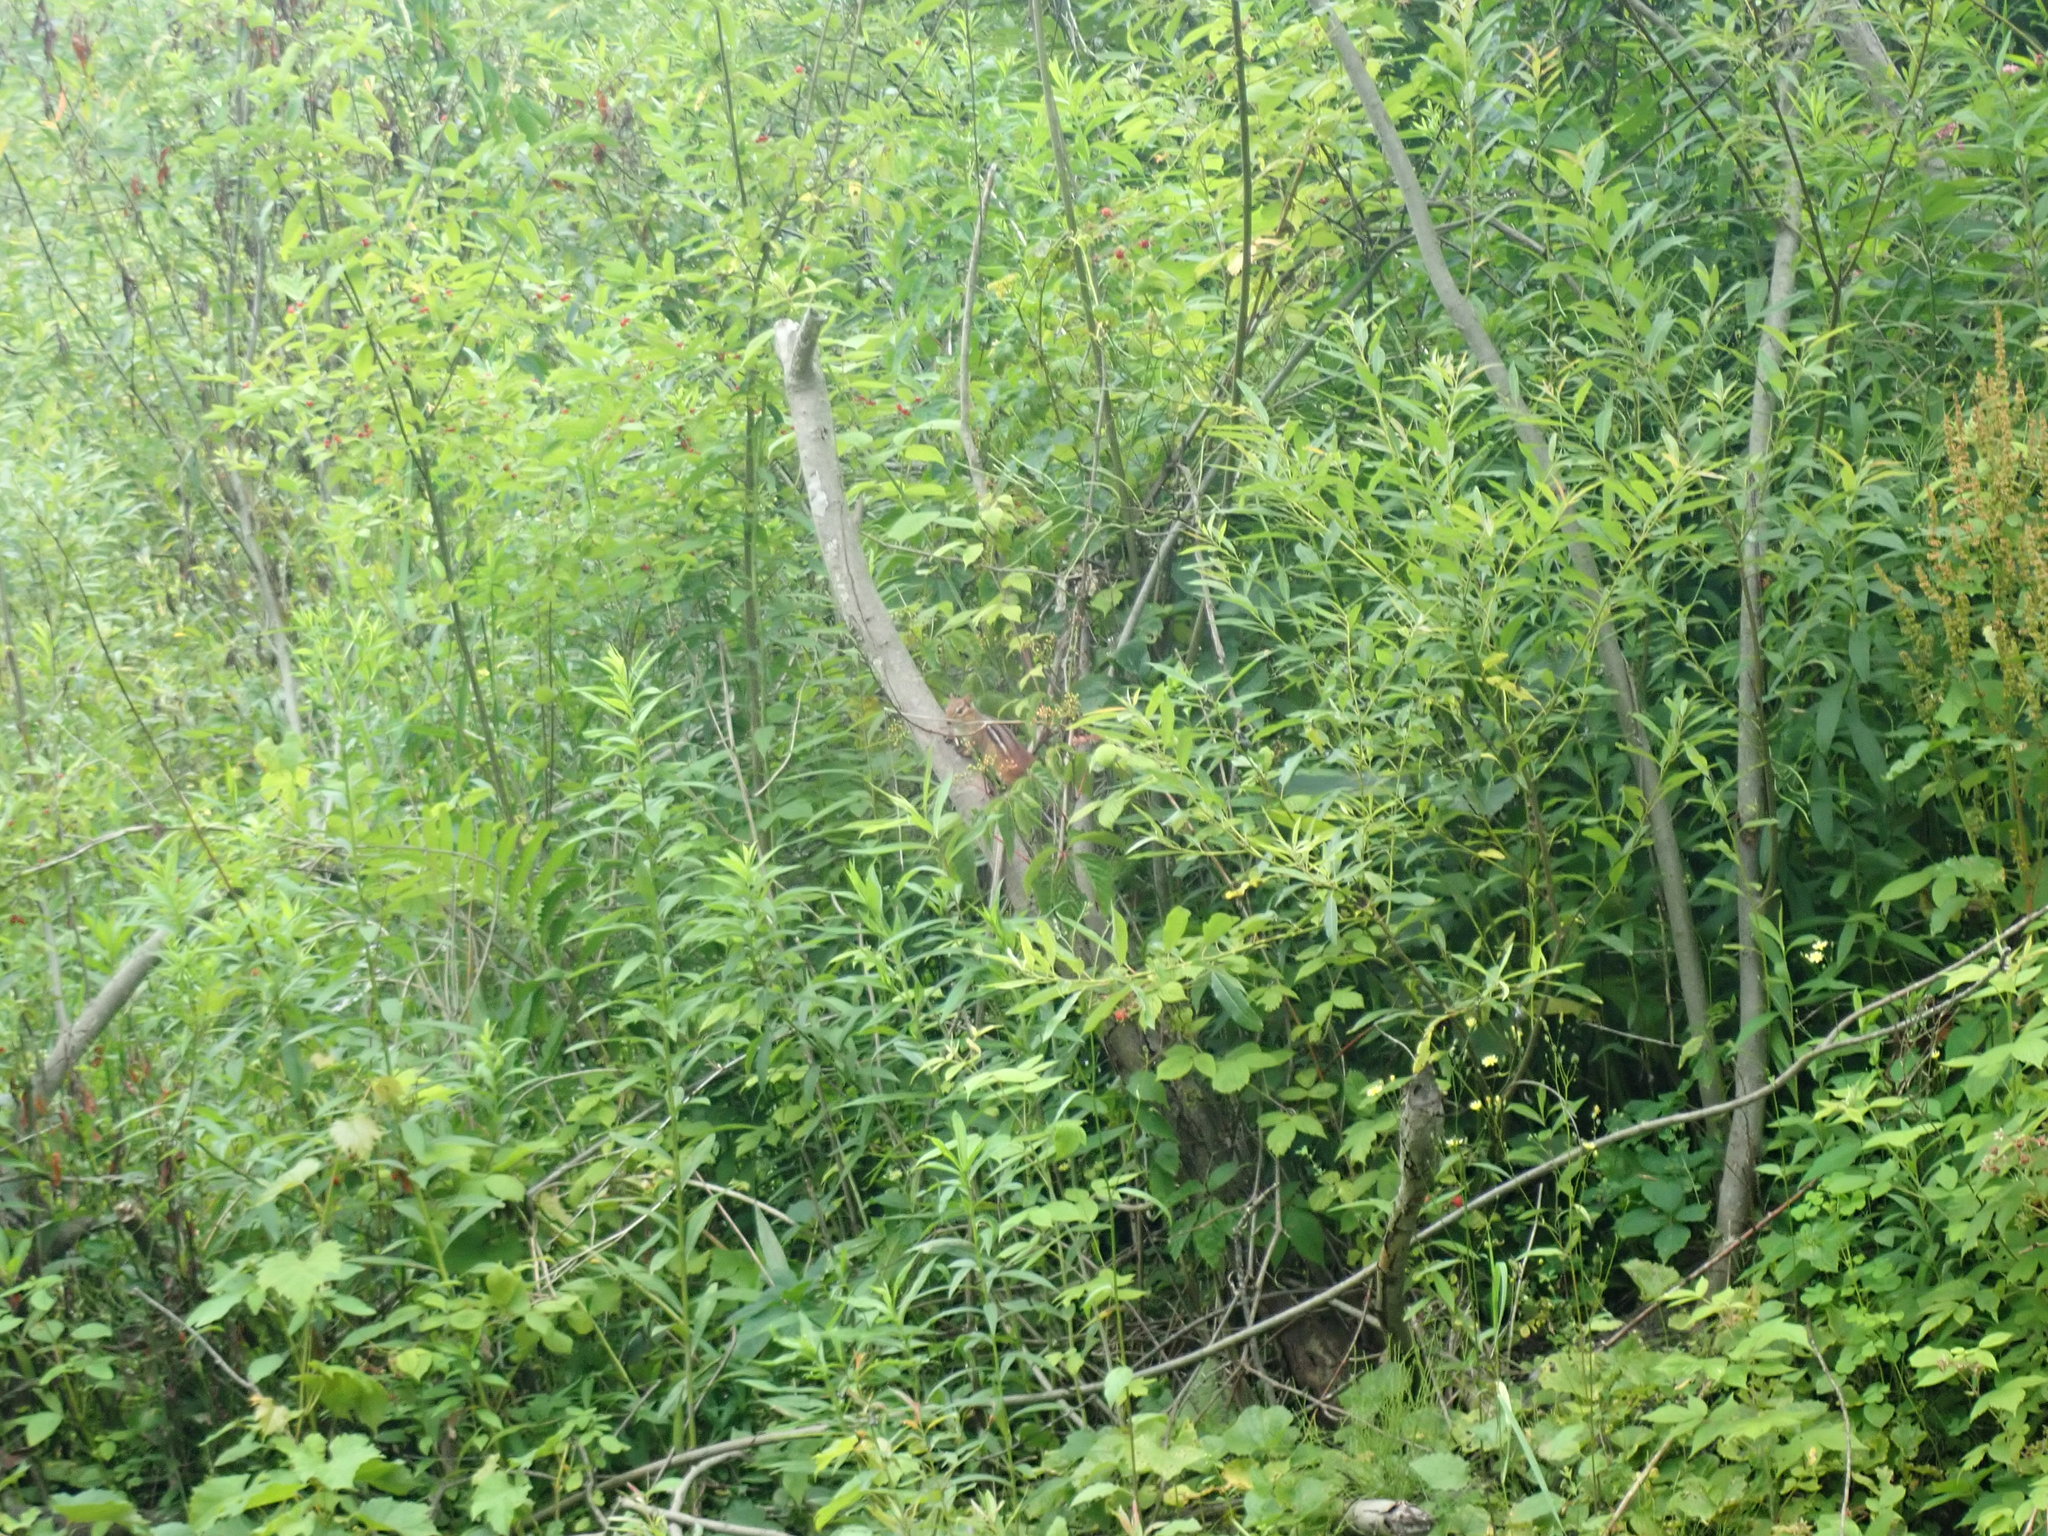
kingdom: Animalia
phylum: Chordata
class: Mammalia
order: Rodentia
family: Sciuridae
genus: Tamias
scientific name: Tamias striatus
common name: Eastern chipmunk
